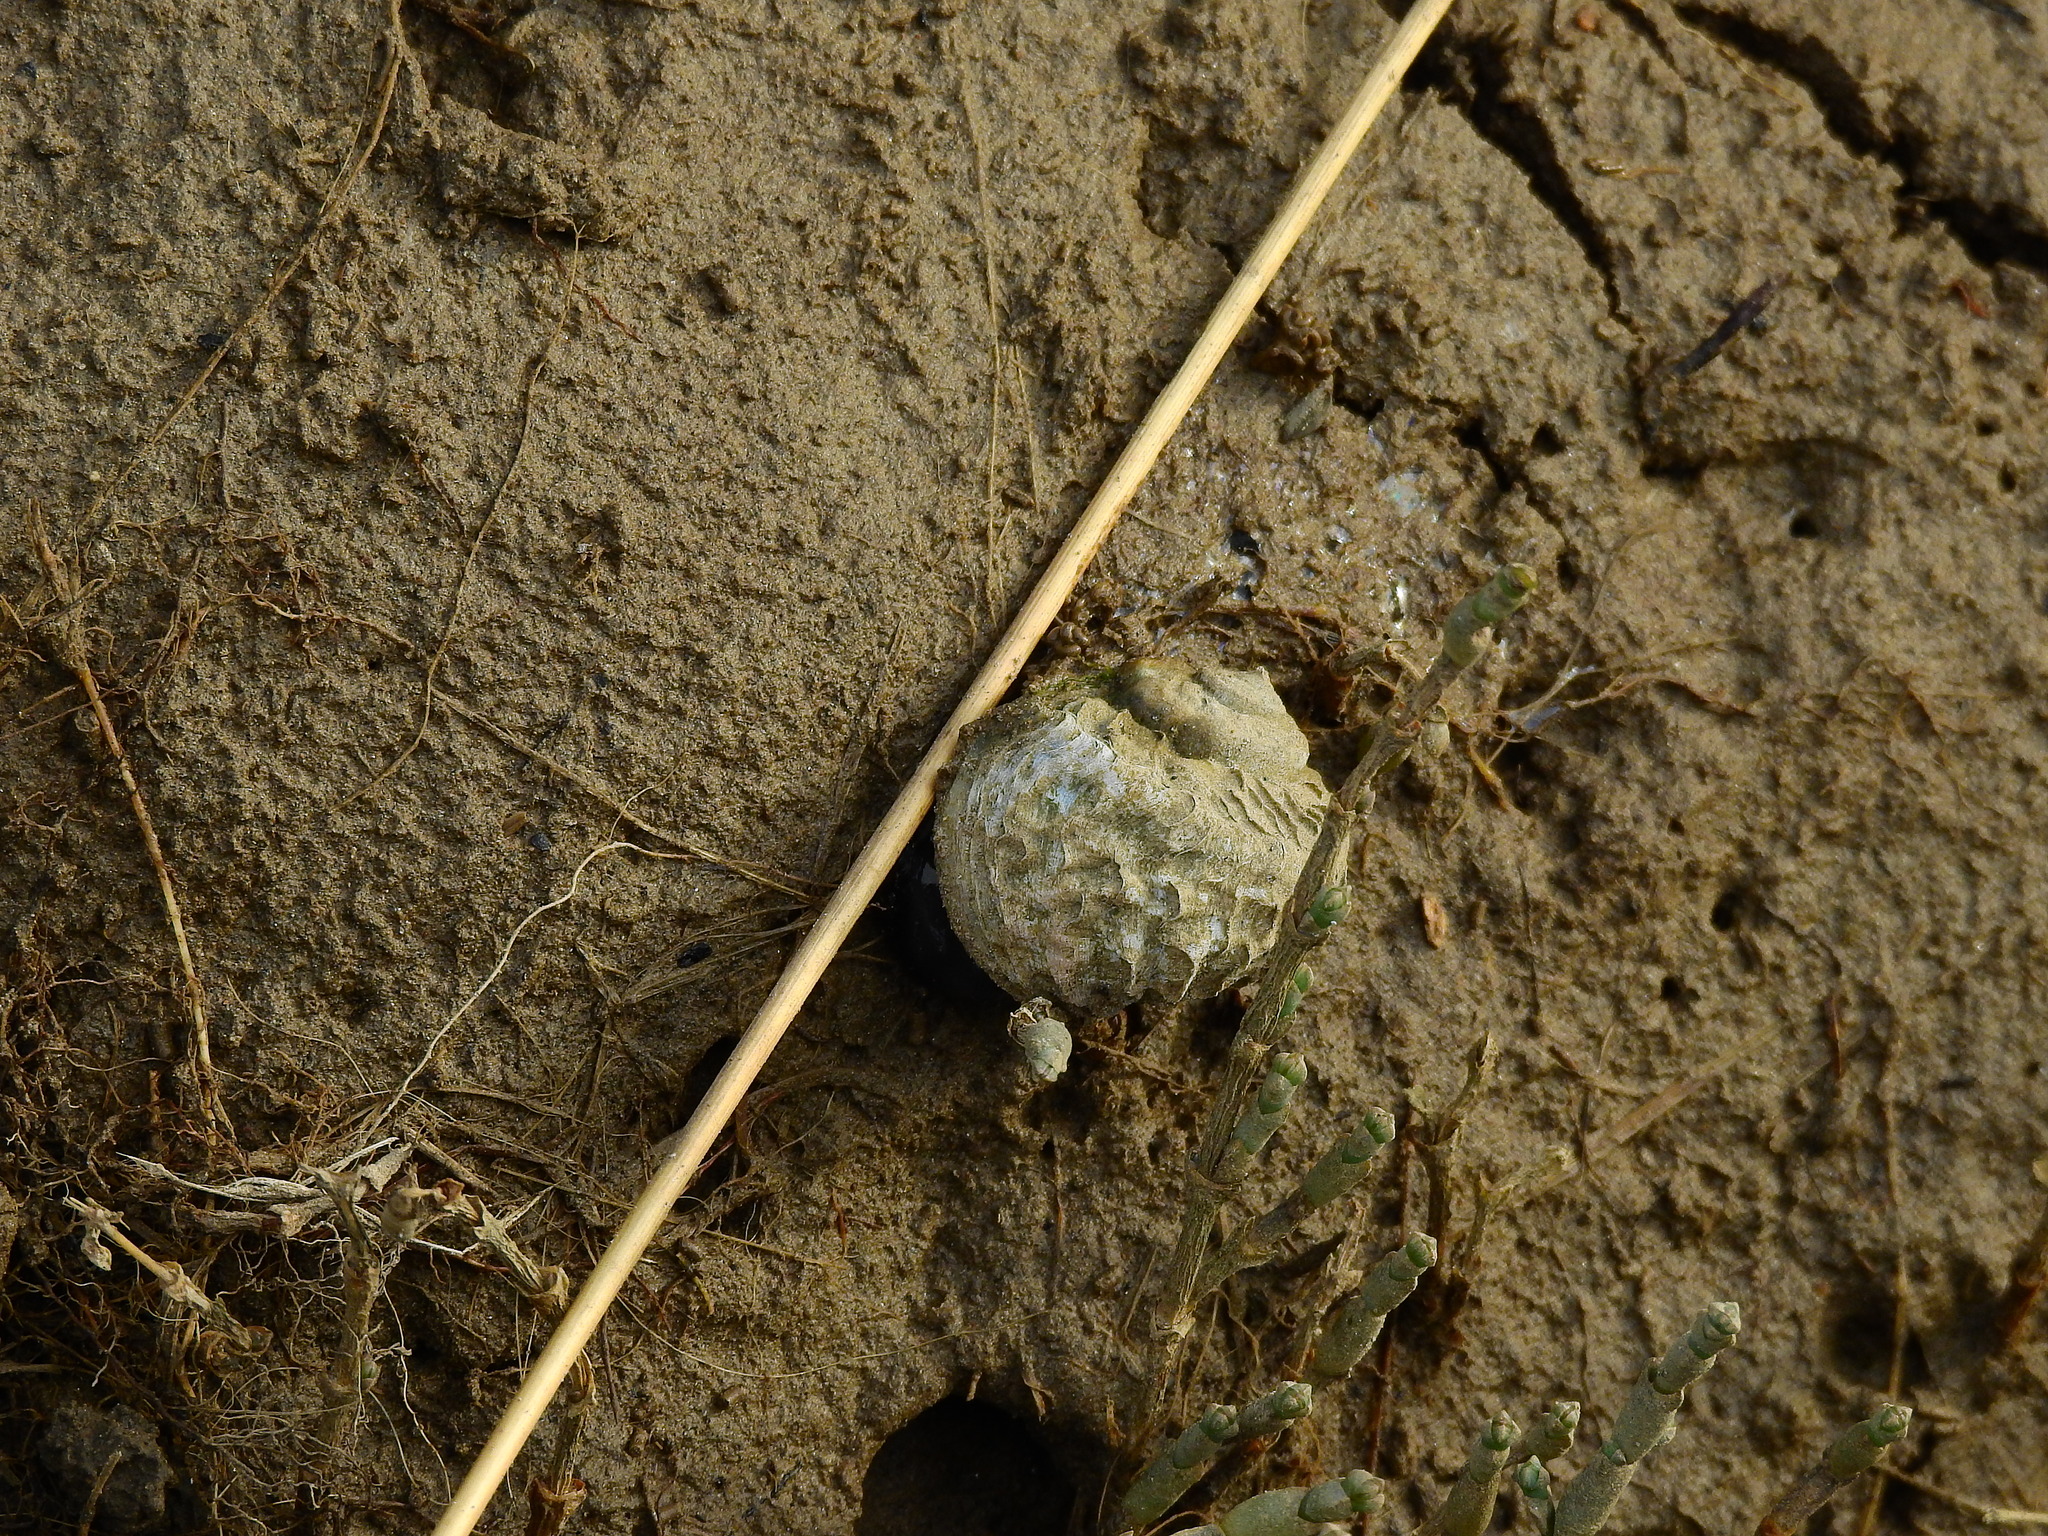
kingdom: Animalia
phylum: Mollusca
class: Gastropoda
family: Amphibolidae
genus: Amphibola
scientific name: Amphibola crenata
